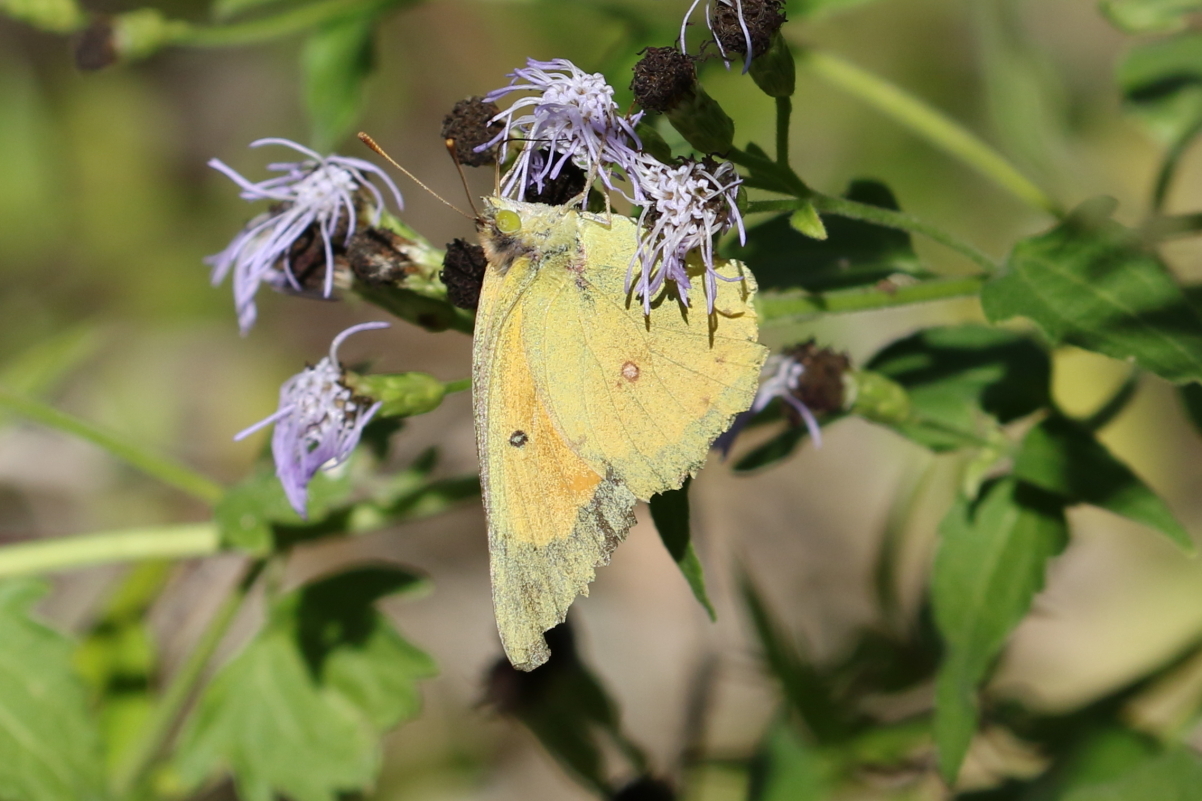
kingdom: Animalia
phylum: Arthropoda
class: Insecta
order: Lepidoptera
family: Pieridae
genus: Colias
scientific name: Colias eurytheme
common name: Alfalfa butterfly
